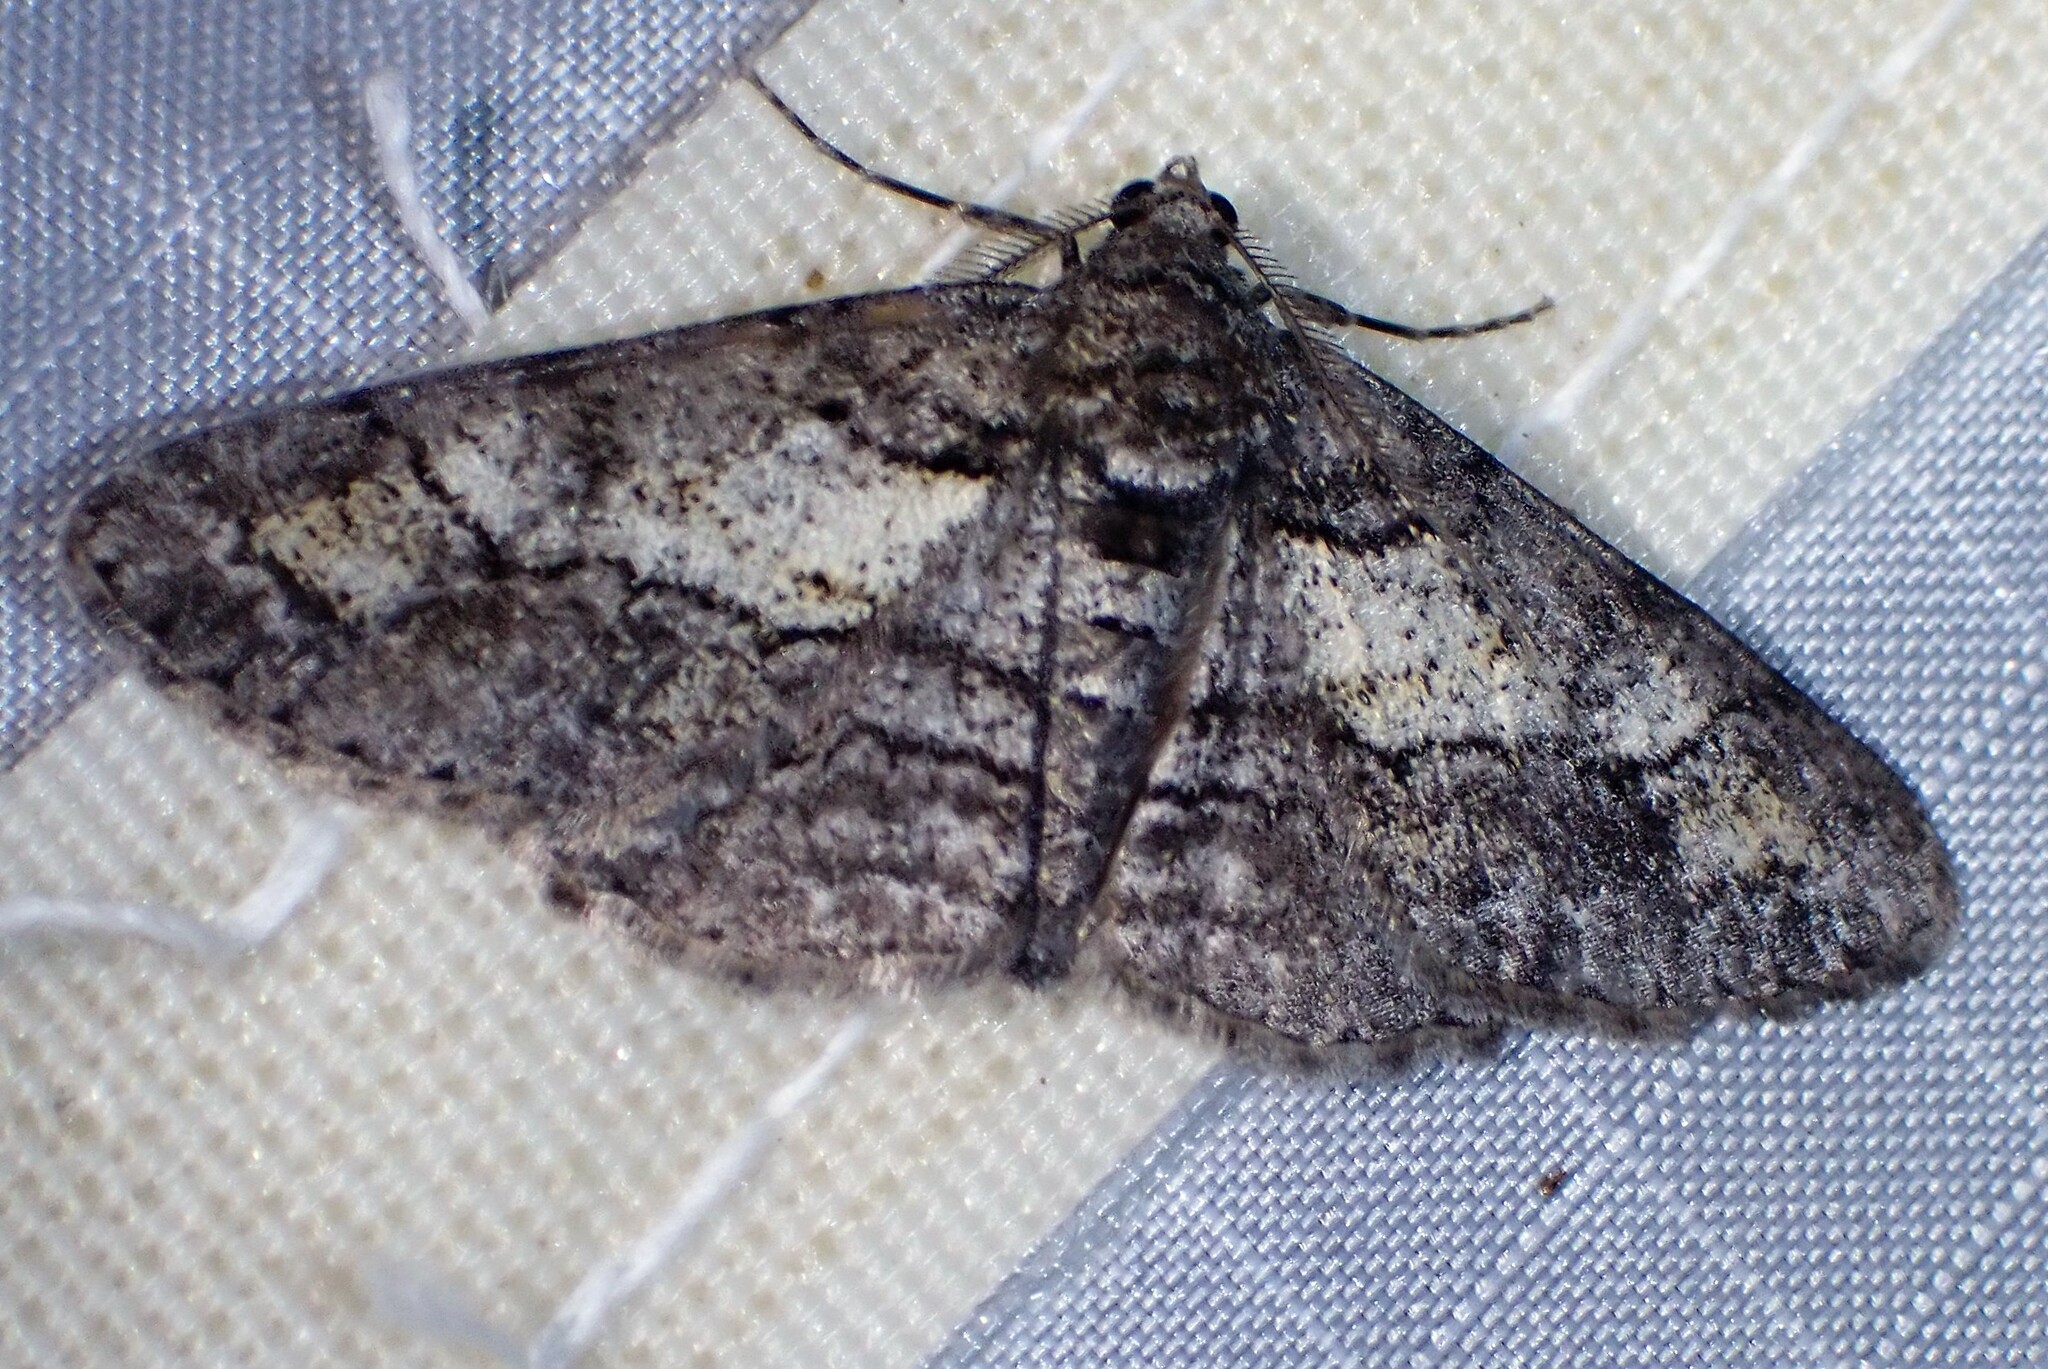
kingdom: Animalia
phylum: Arthropoda
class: Insecta
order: Lepidoptera
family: Geometridae
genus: Cleora
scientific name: Cleora projecta
